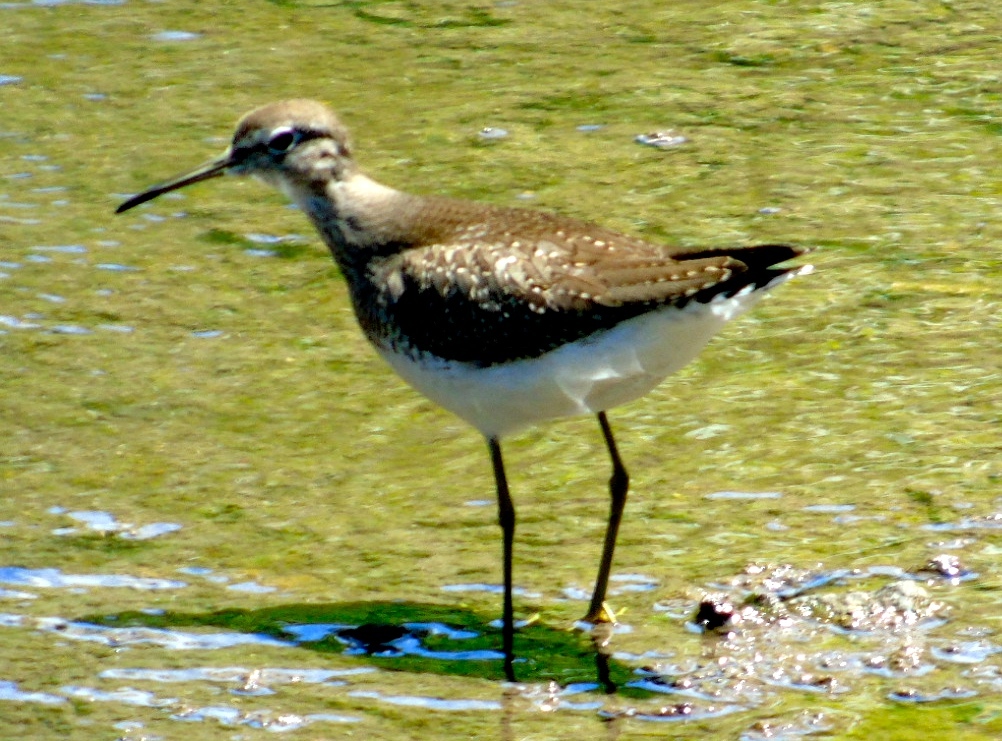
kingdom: Animalia
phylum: Chordata
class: Aves
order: Charadriiformes
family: Scolopacidae
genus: Tringa
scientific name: Tringa solitaria
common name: Solitary sandpiper
